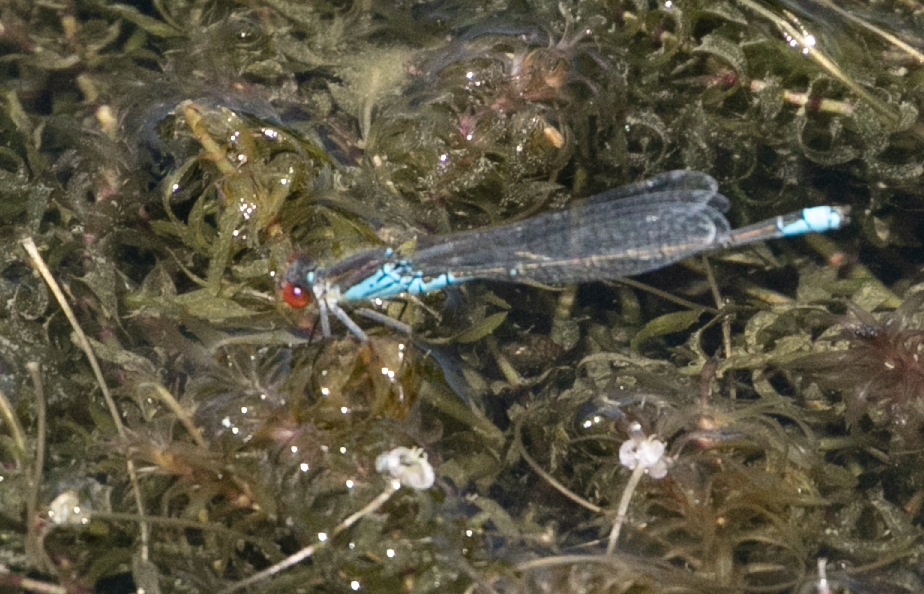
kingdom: Animalia
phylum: Arthropoda
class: Insecta
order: Odonata
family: Coenagrionidae
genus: Erythromma
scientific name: Erythromma viridulum
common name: Small red-eyed damselfly
